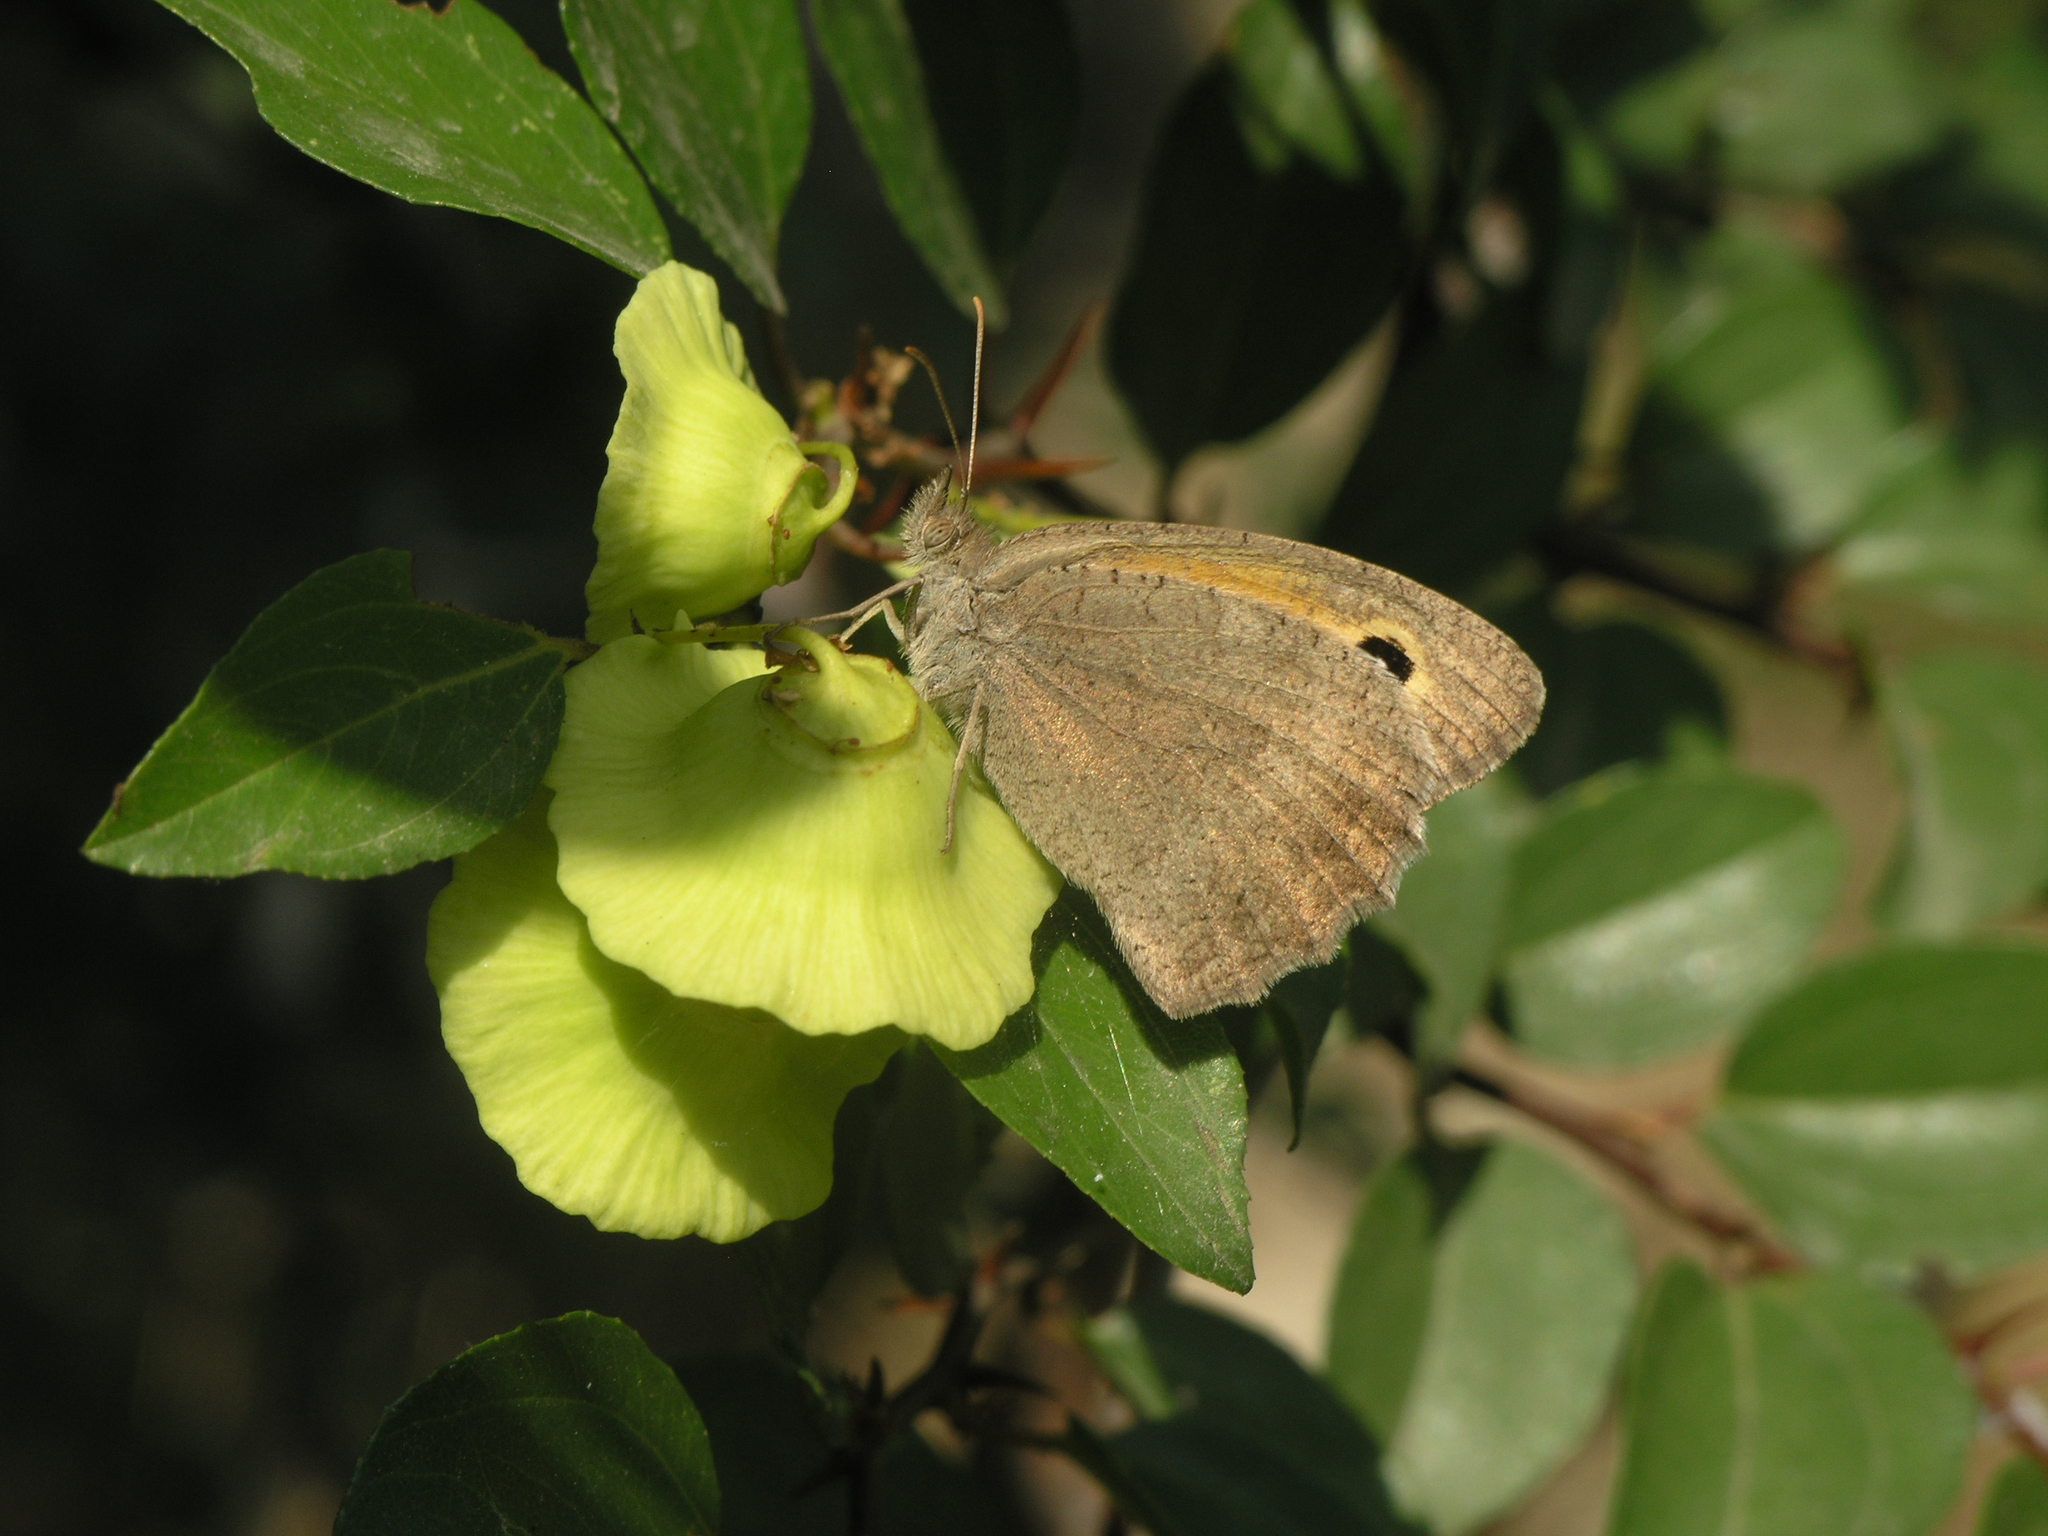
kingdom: Plantae
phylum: Tracheophyta
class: Magnoliopsida
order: Rosales
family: Rhamnaceae
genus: Paliurus
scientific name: Paliurus spina-christi
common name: Jeruselem thorn
